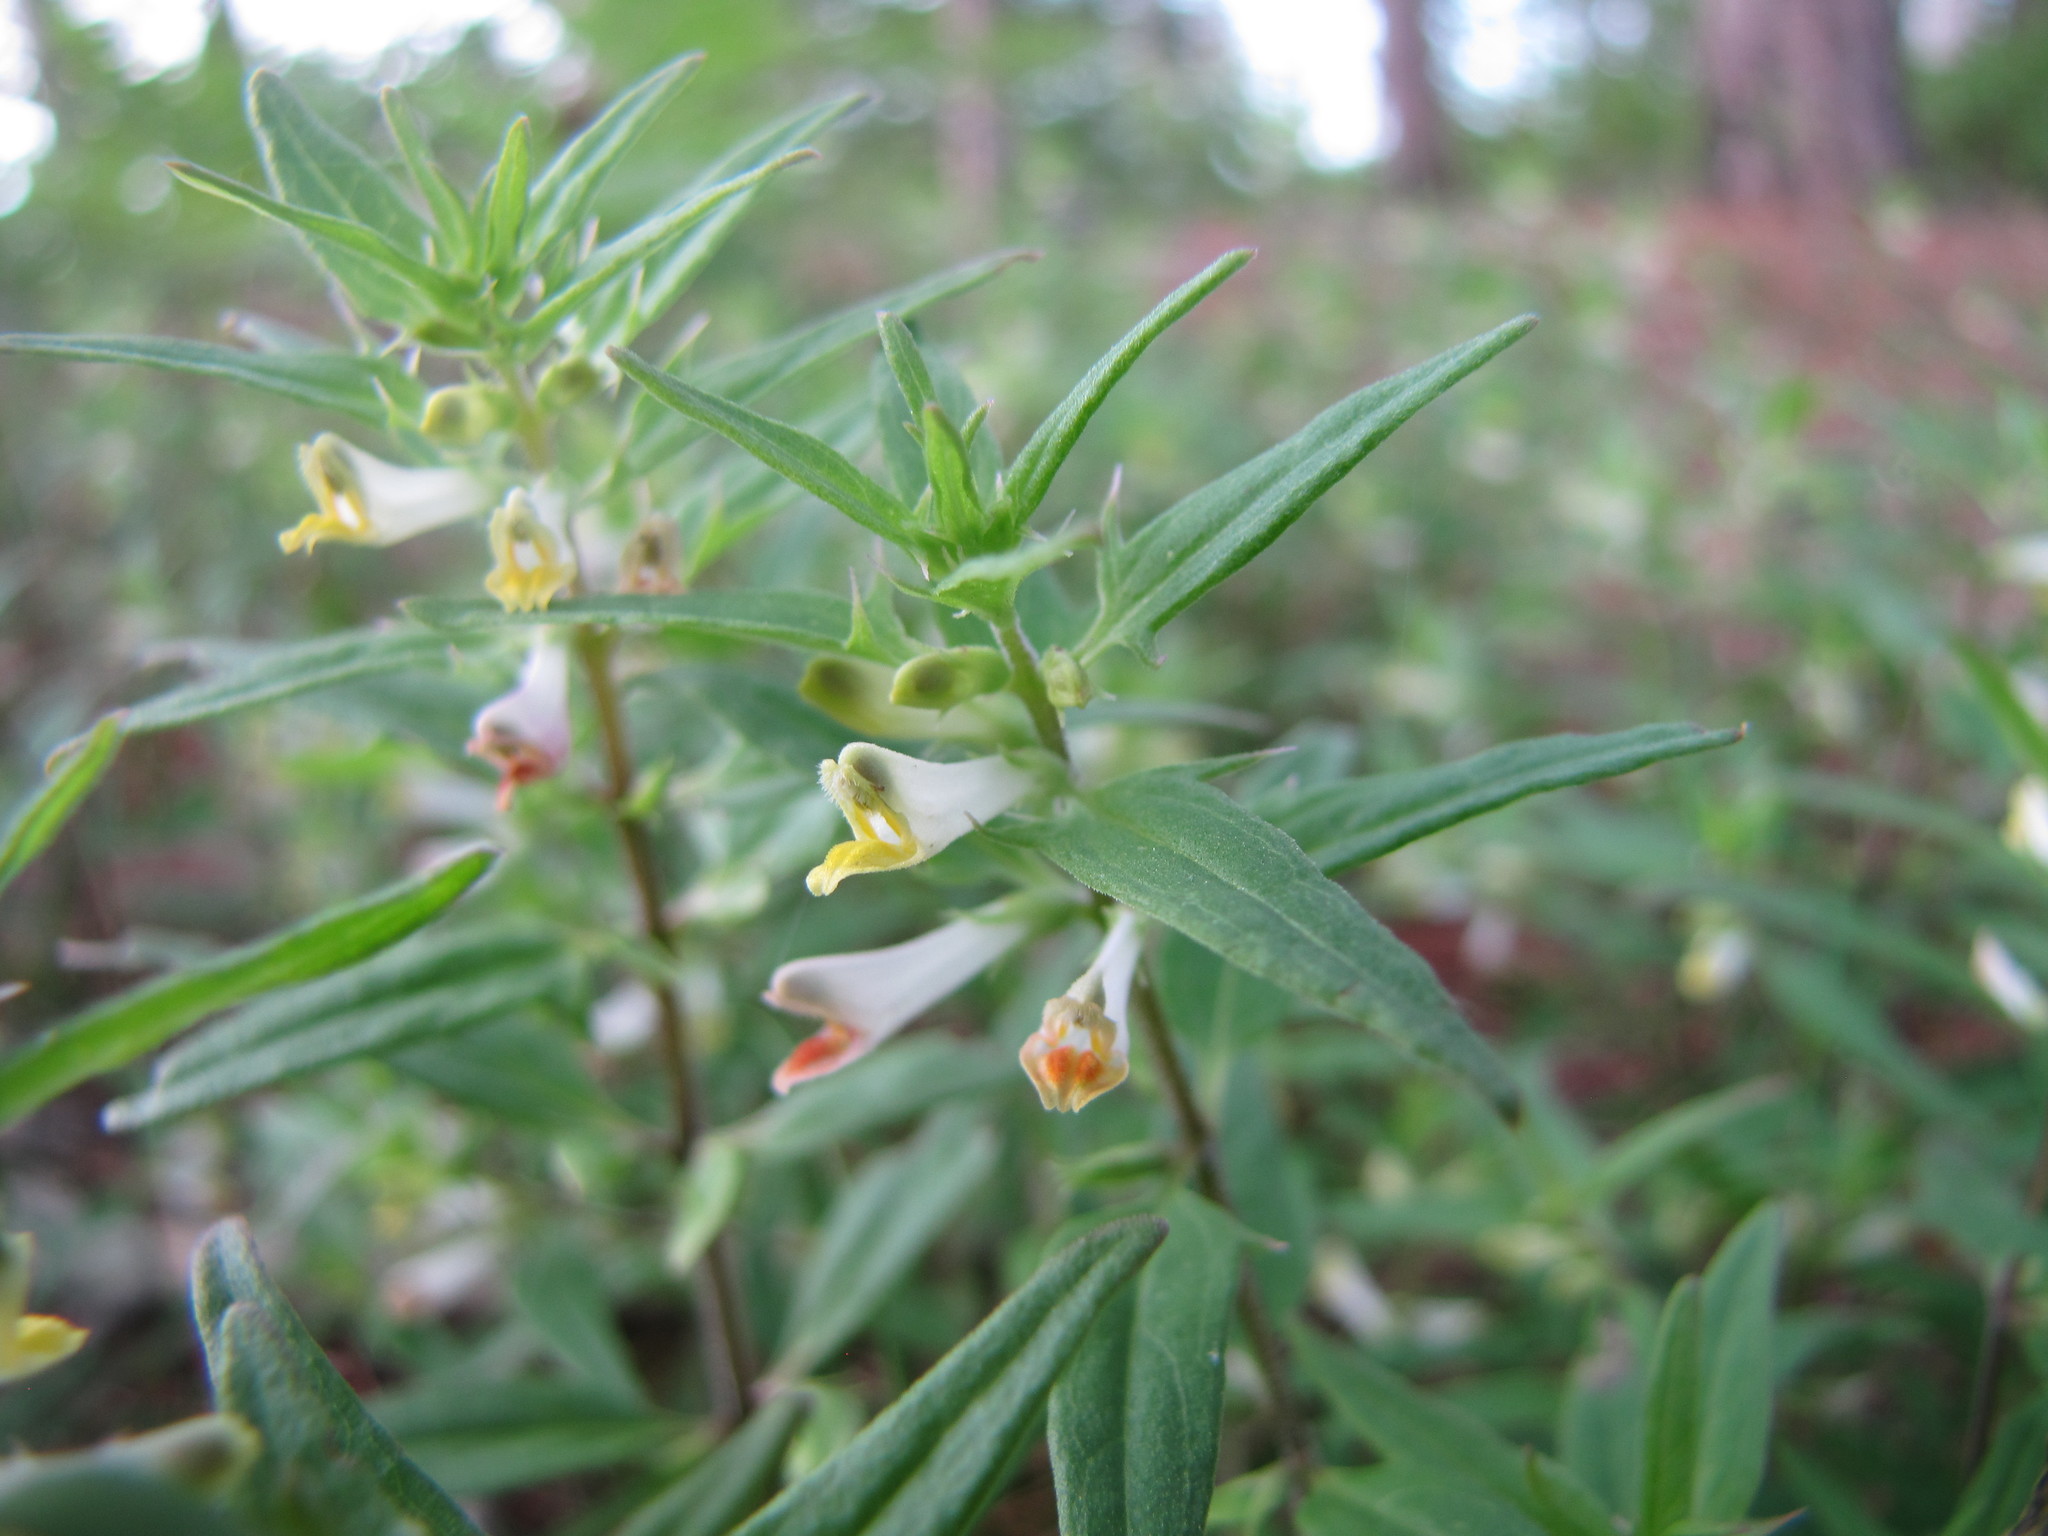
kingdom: Plantae
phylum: Tracheophyta
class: Magnoliopsida
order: Lamiales
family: Orobanchaceae
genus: Melampyrum
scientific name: Melampyrum lineare
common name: American cow-wheat
